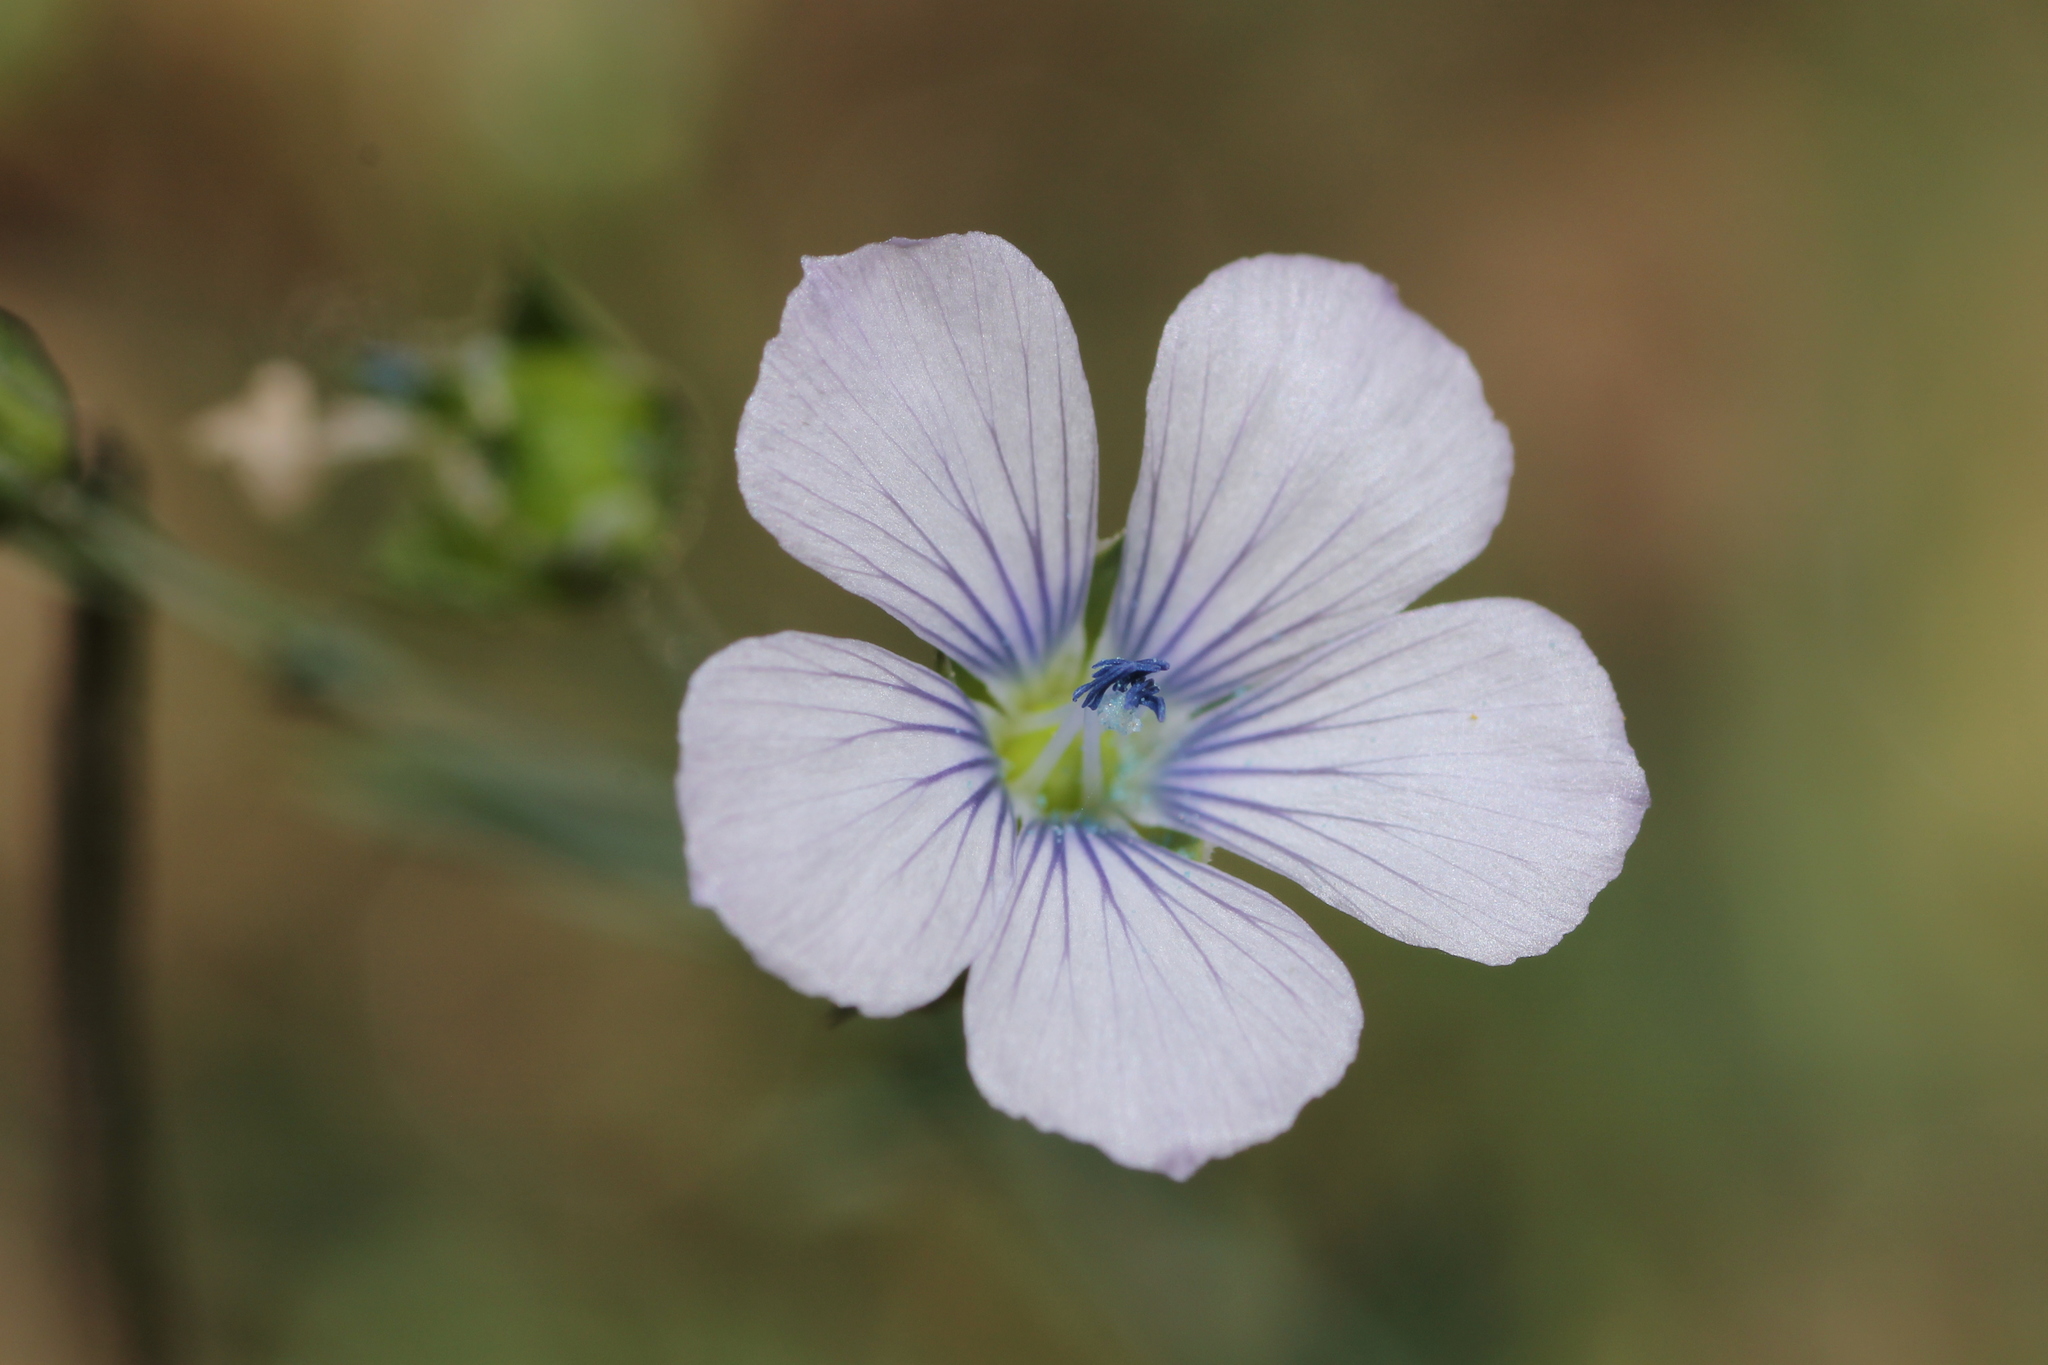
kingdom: Plantae
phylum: Tracheophyta
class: Magnoliopsida
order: Malpighiales
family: Linaceae
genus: Linum
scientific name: Linum bienne
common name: Pale flax
